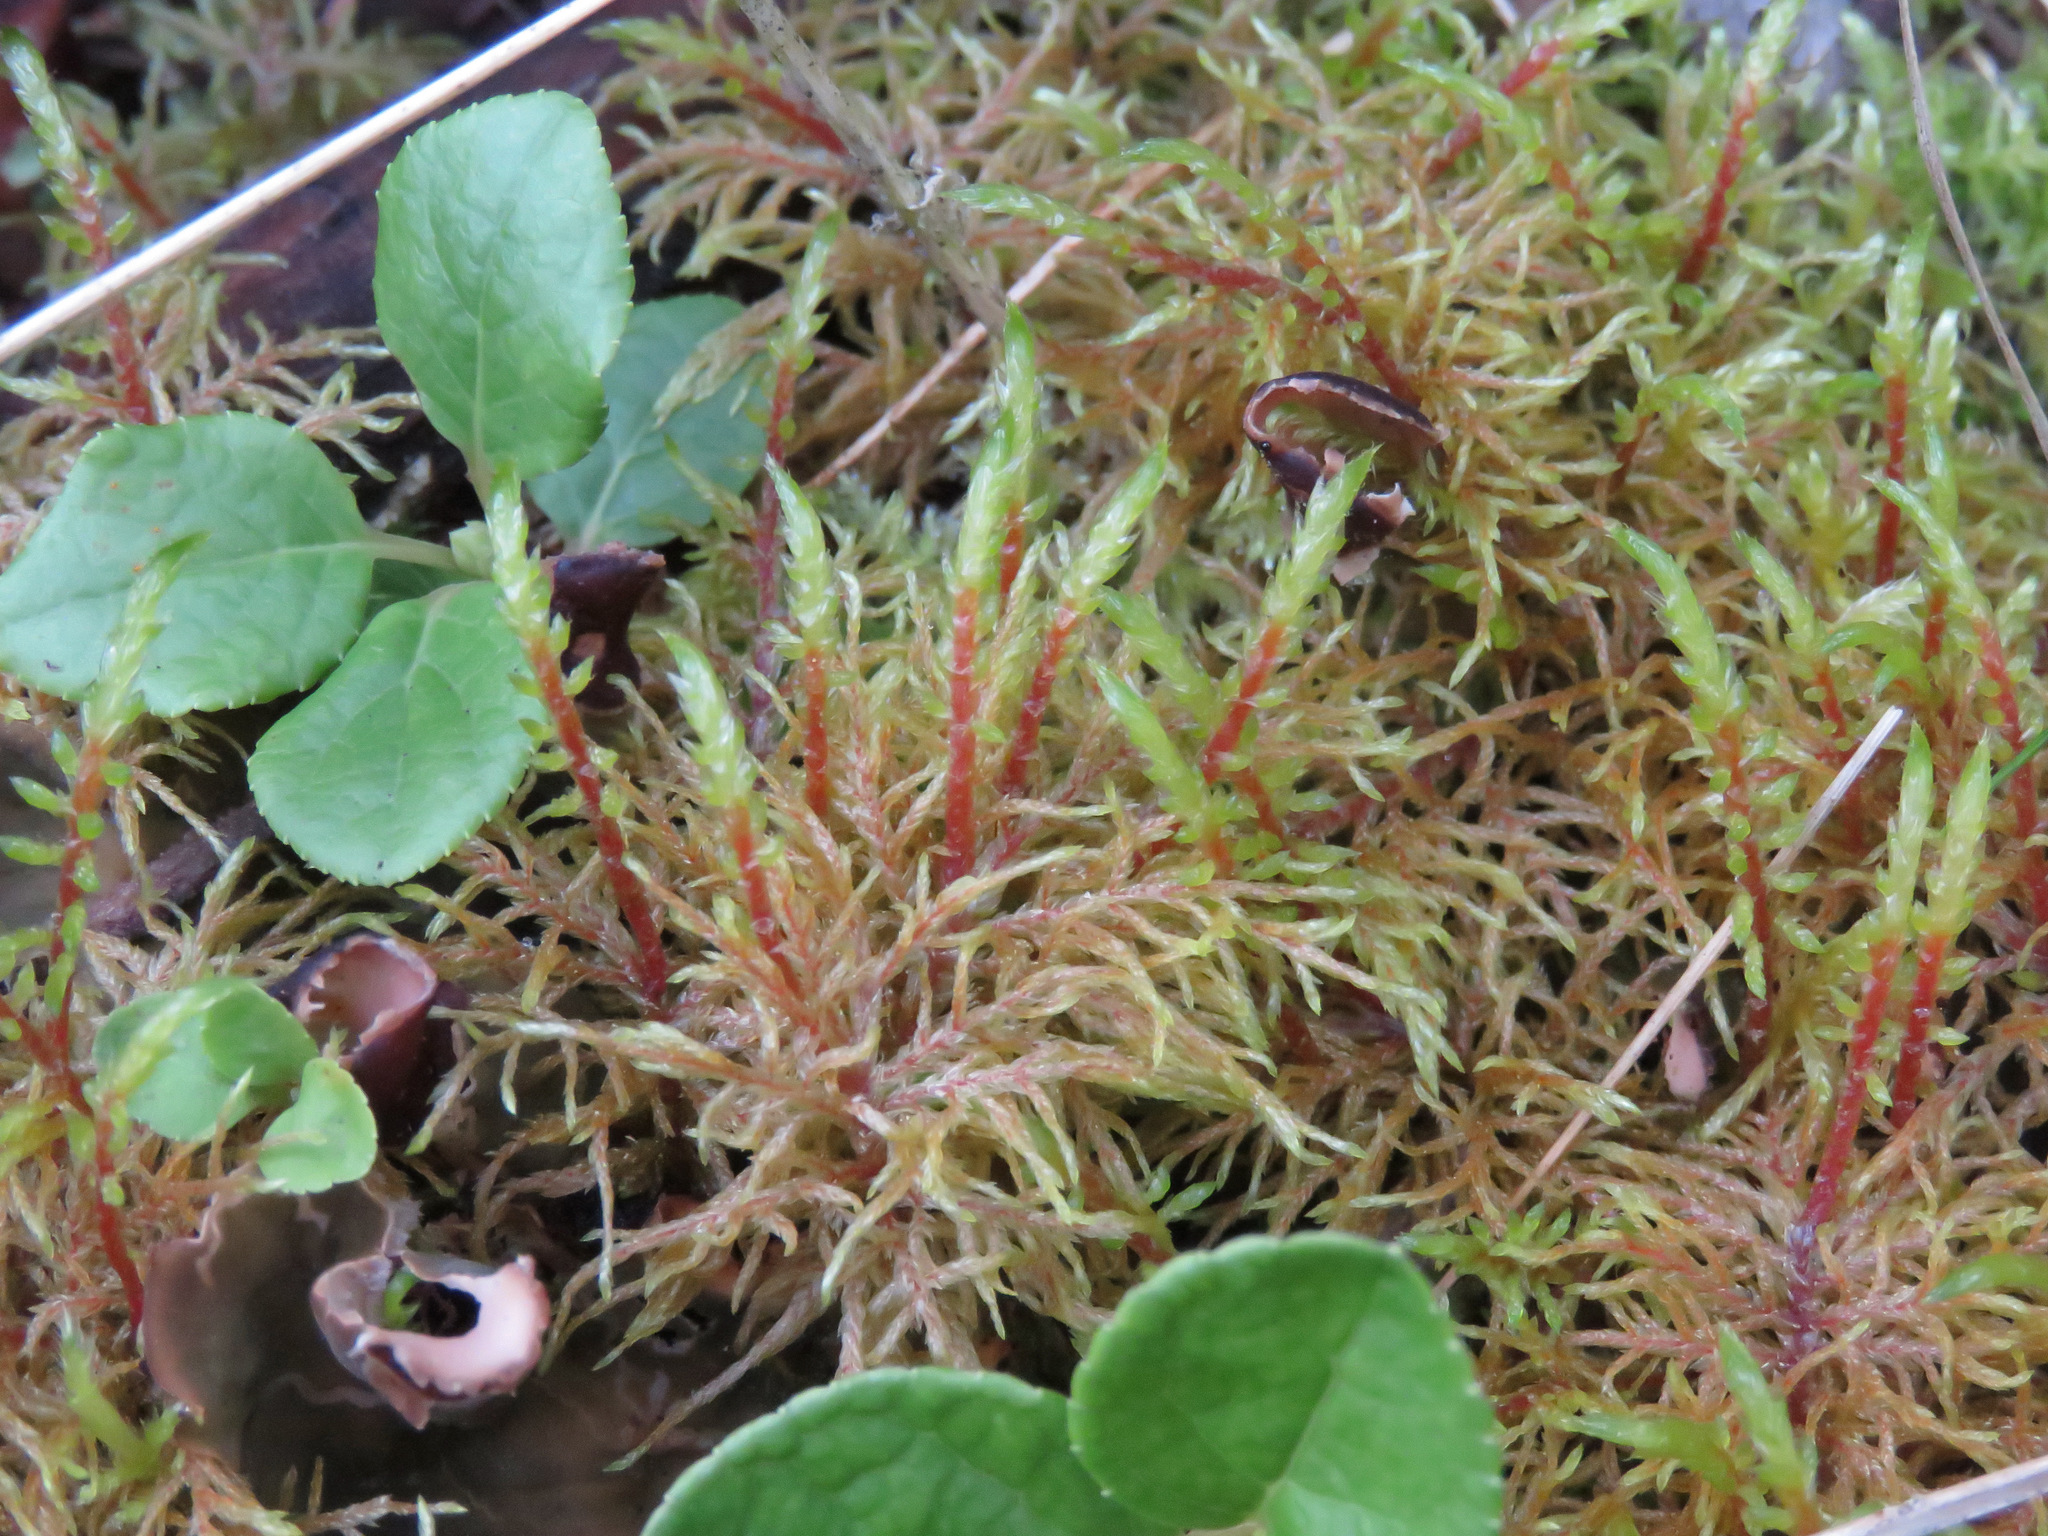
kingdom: Plantae
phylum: Bryophyta
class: Bryopsida
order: Hypnales
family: Hylocomiaceae
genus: Hylocomium
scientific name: Hylocomium splendens
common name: Stairstep moss
